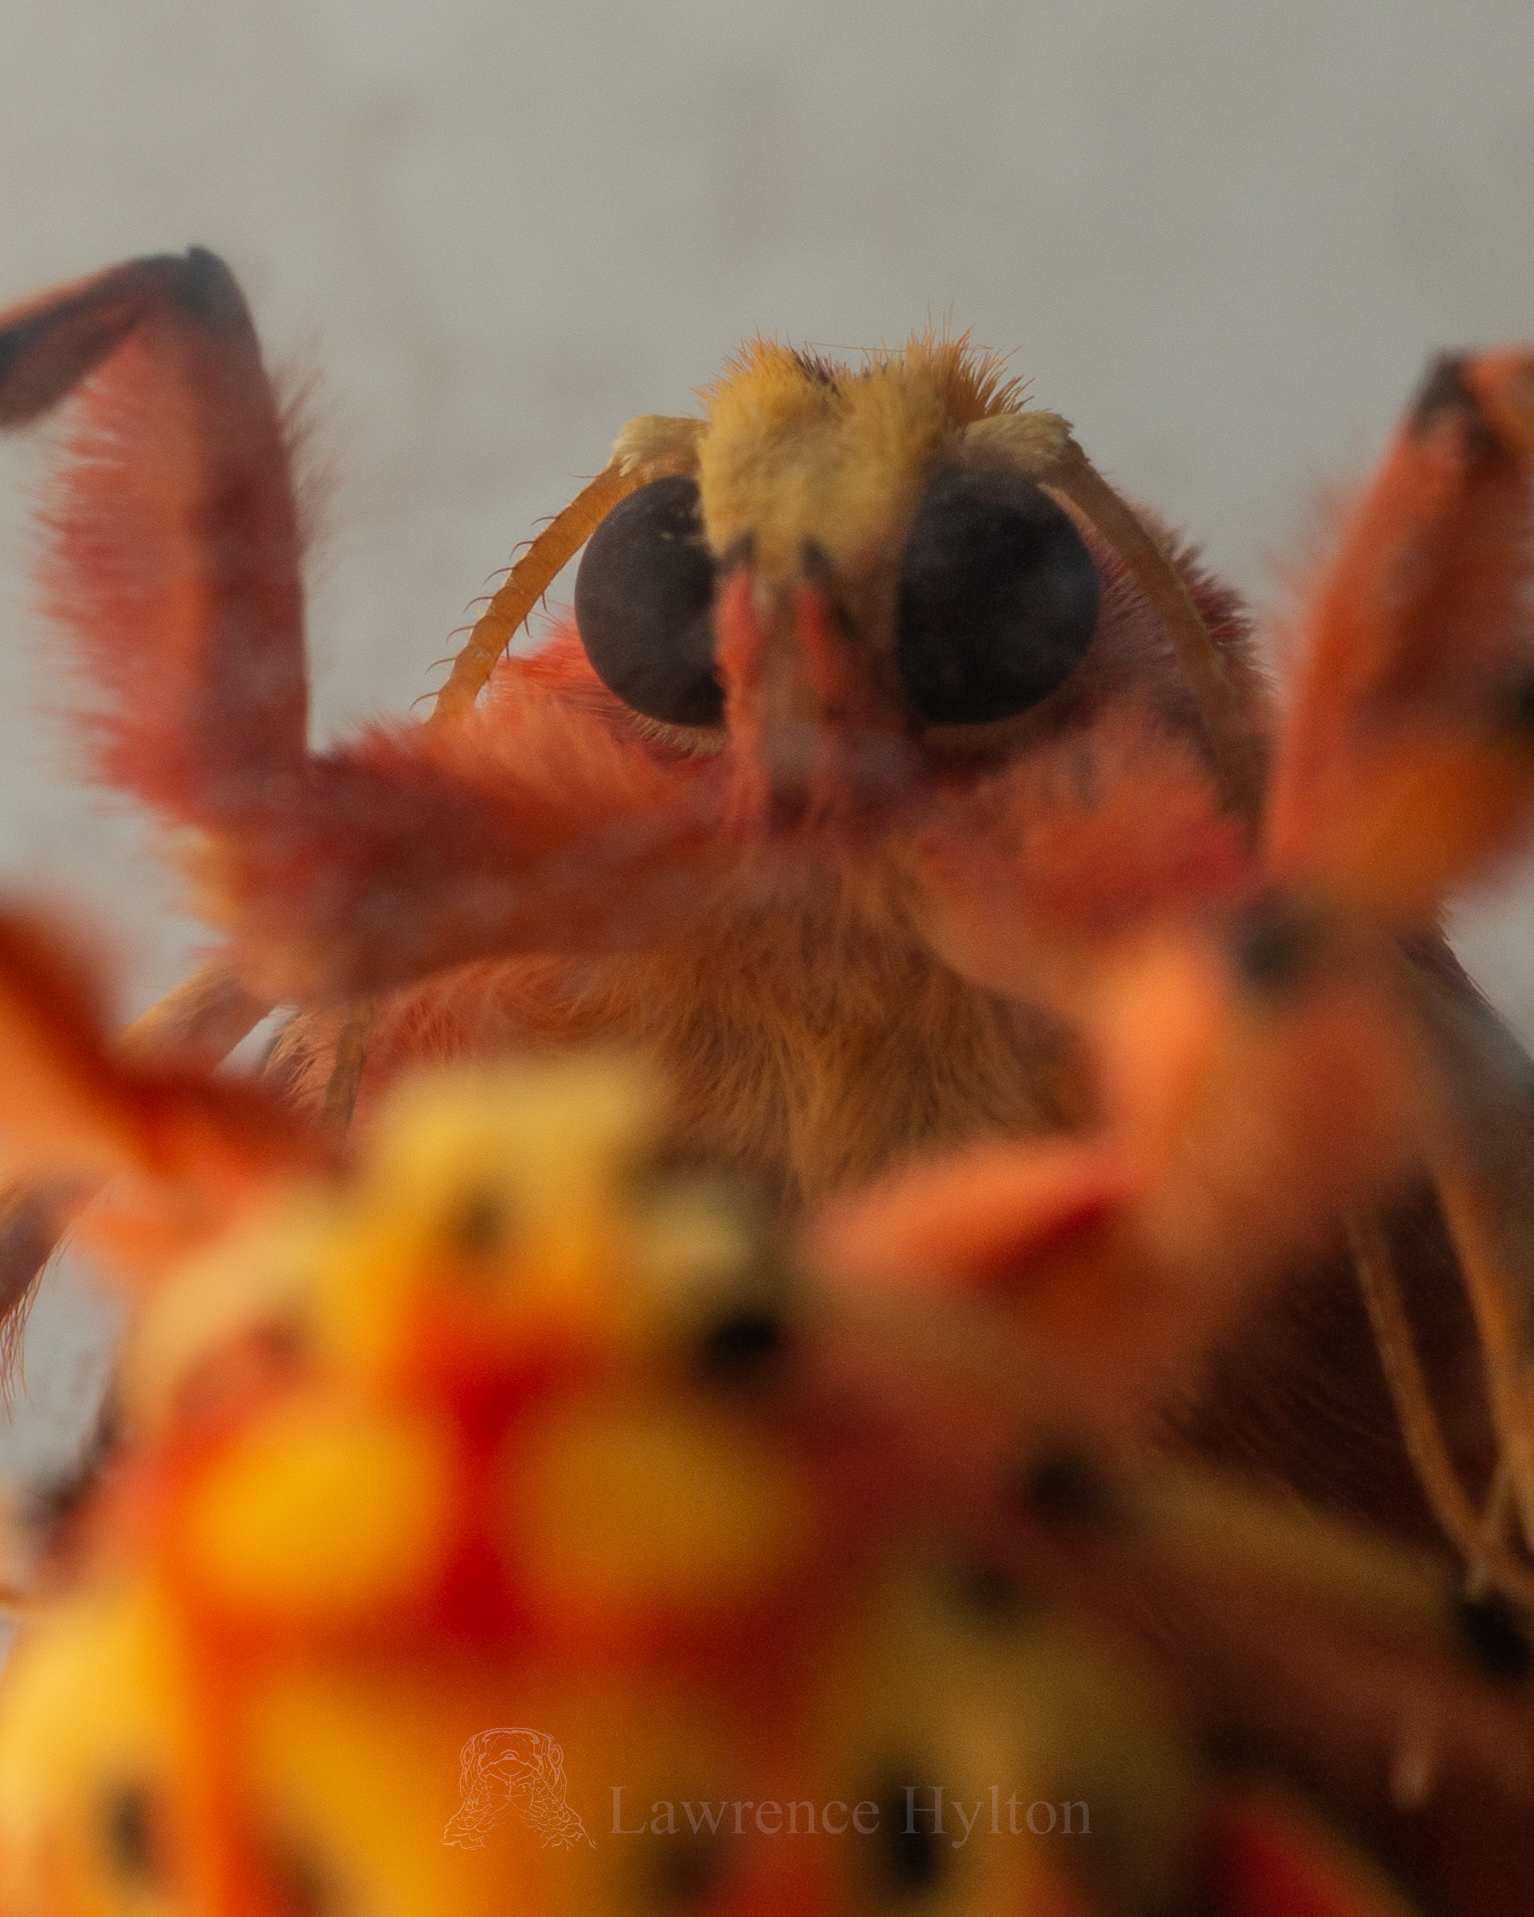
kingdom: Animalia
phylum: Arthropoda
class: Insecta
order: Lepidoptera
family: Erebidae
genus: Barsine
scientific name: Barsine striata
